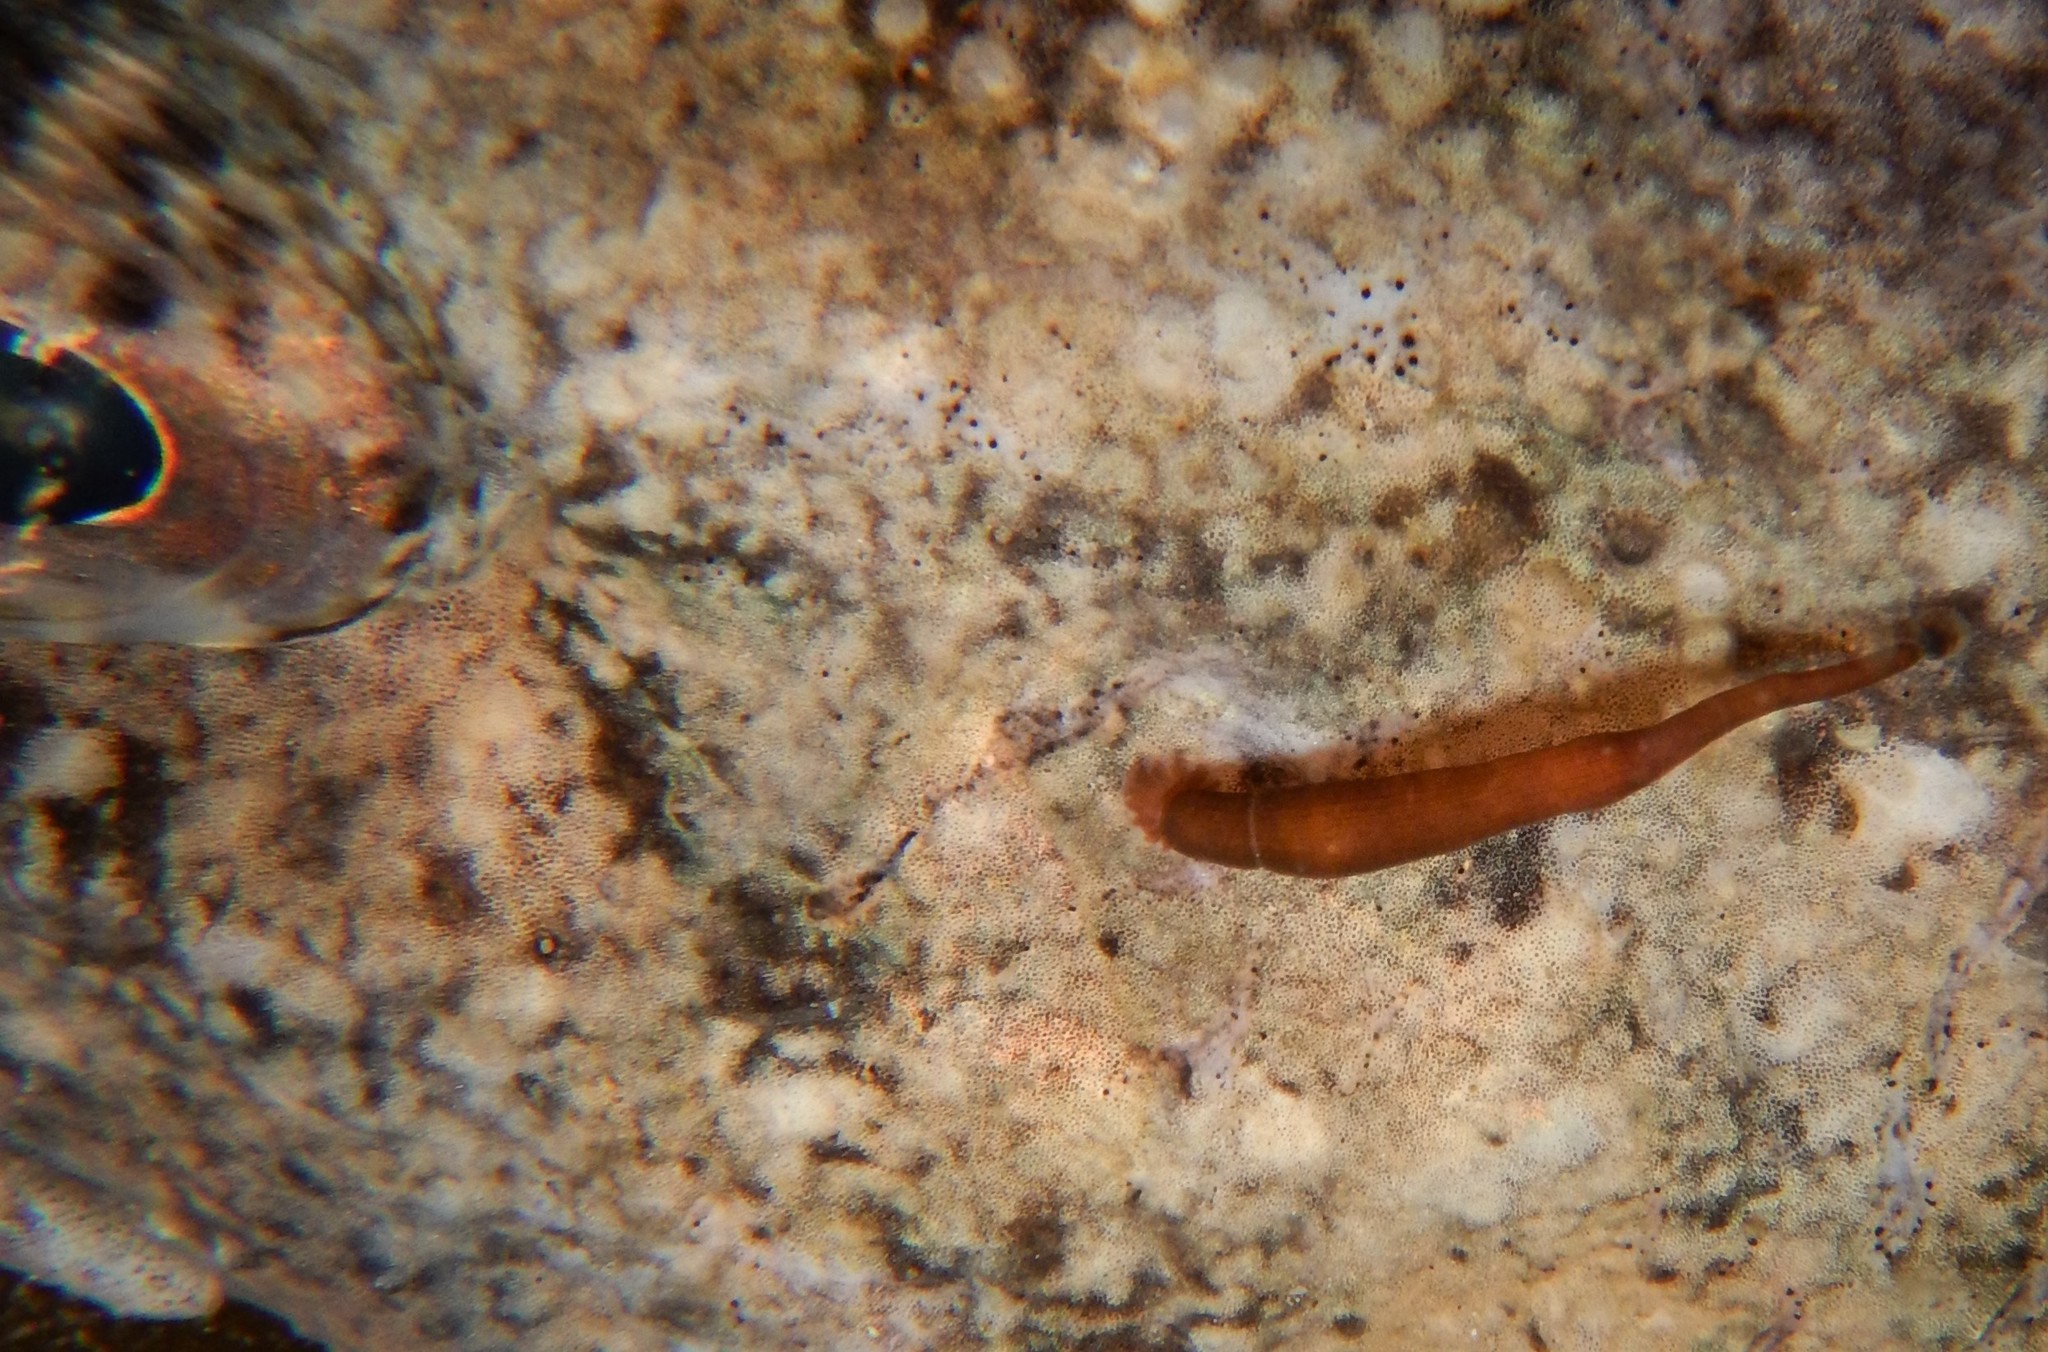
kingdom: Animalia
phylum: Annelida
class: Clitellata
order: Rhynchobdellida
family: Piscicolidae
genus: Calliobdella
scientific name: Calliobdella nodulifera
